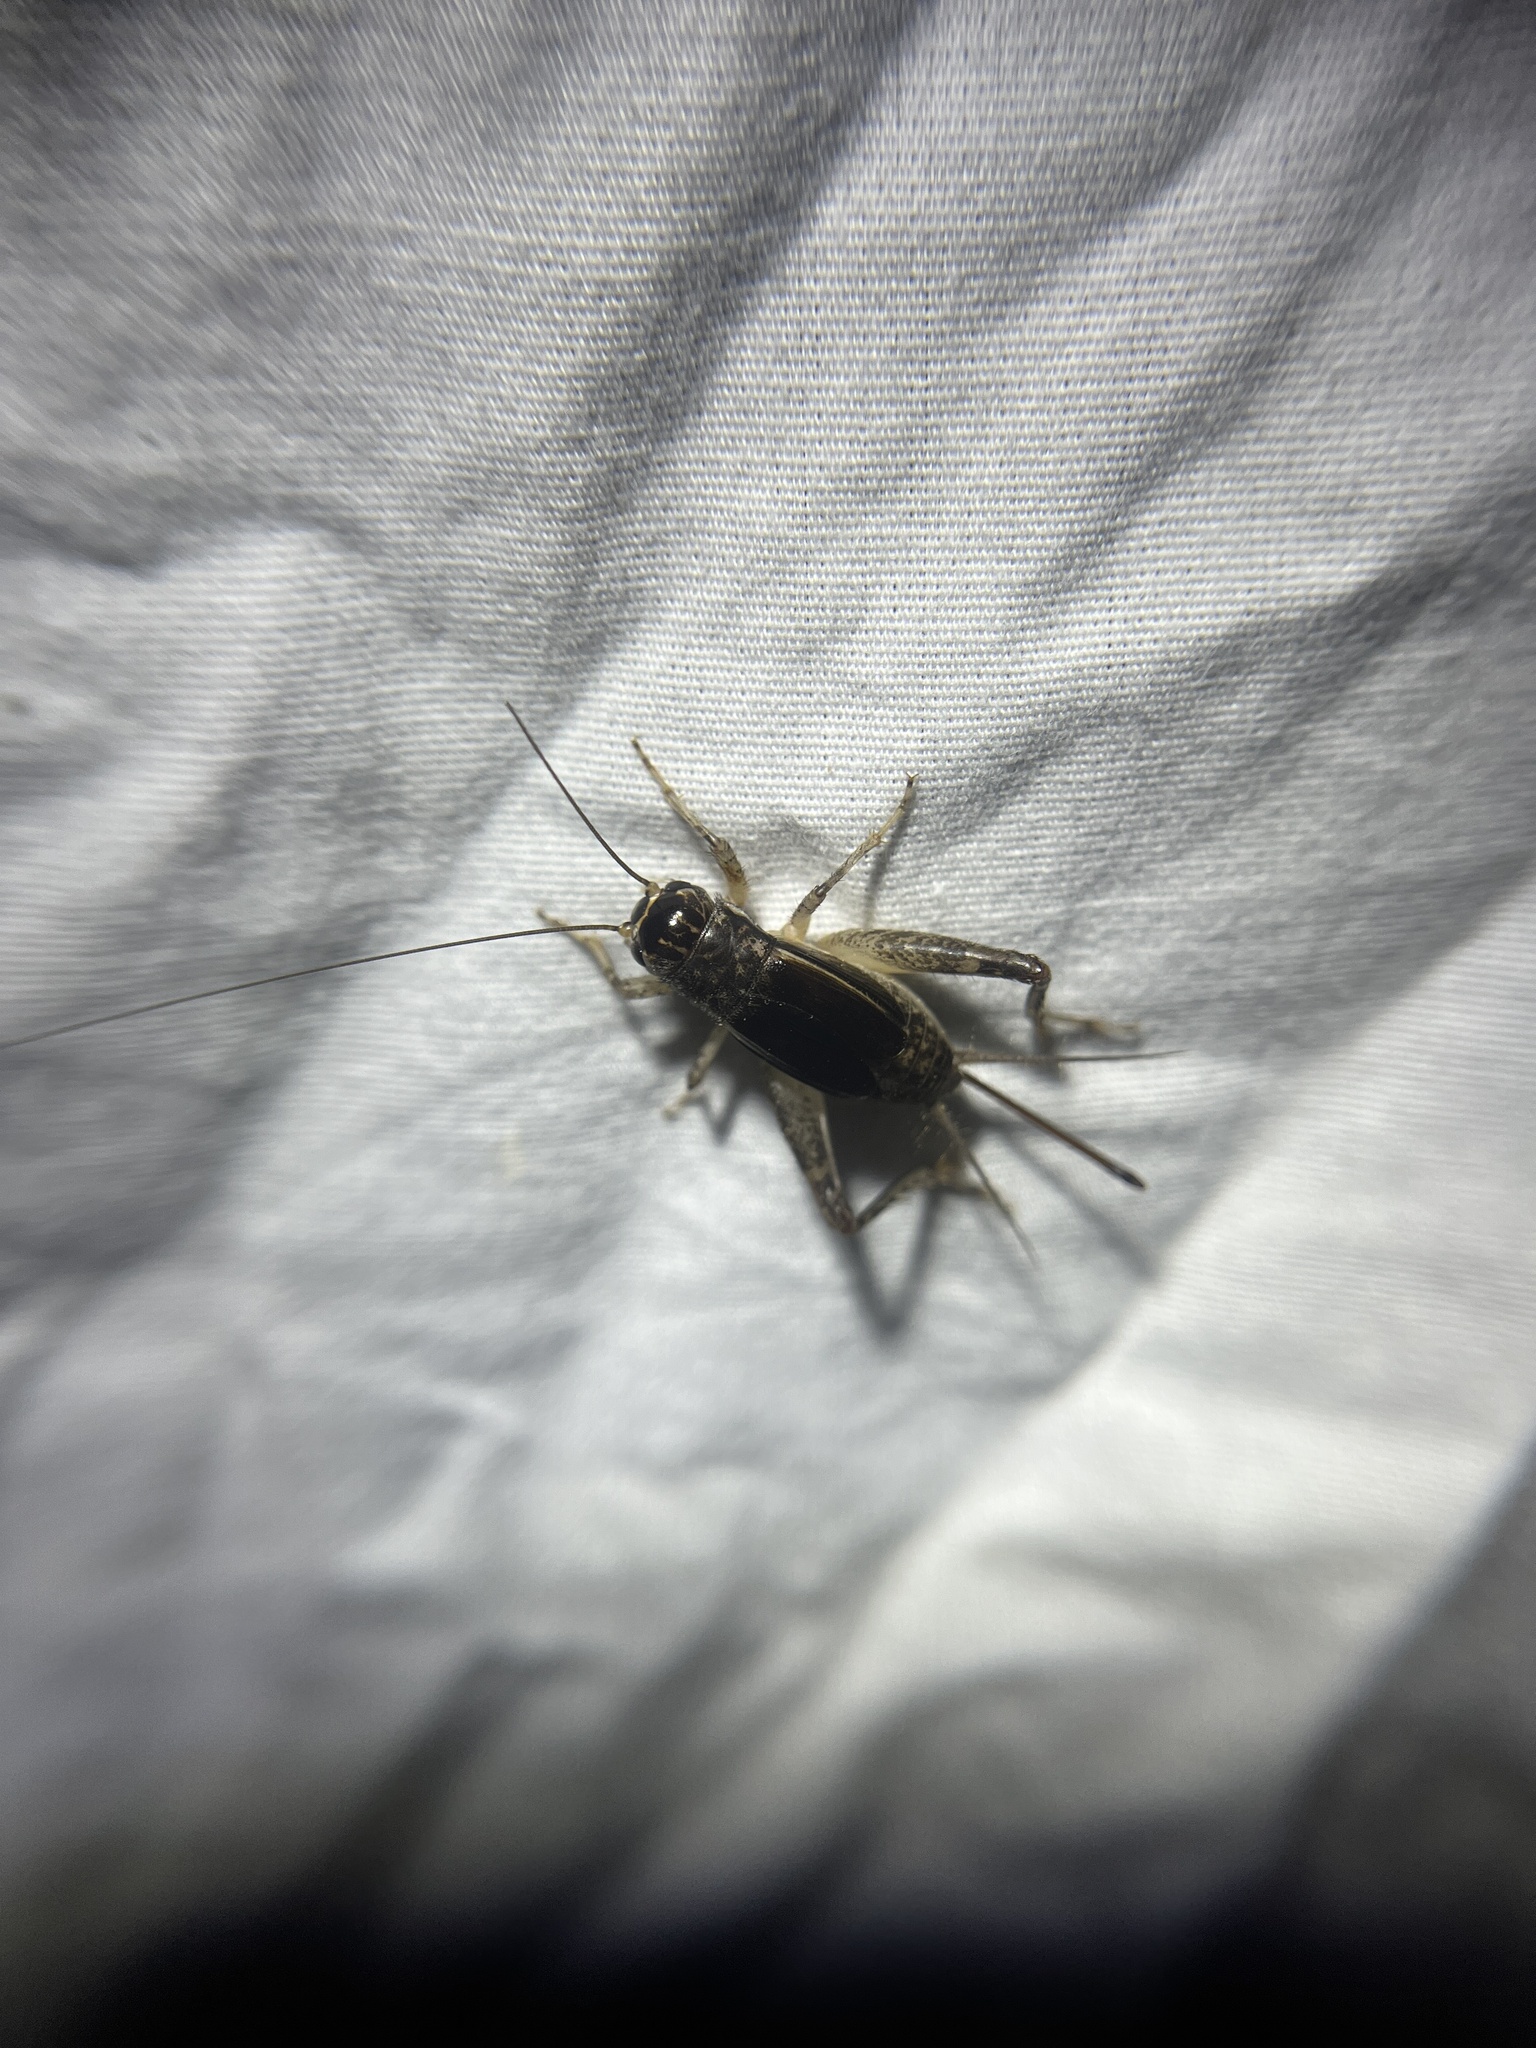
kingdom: Animalia
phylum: Arthropoda
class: Insecta
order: Orthoptera
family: Gryllidae
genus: Velarifictorus
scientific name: Velarifictorus micado
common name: Japanese burrowing cricket
